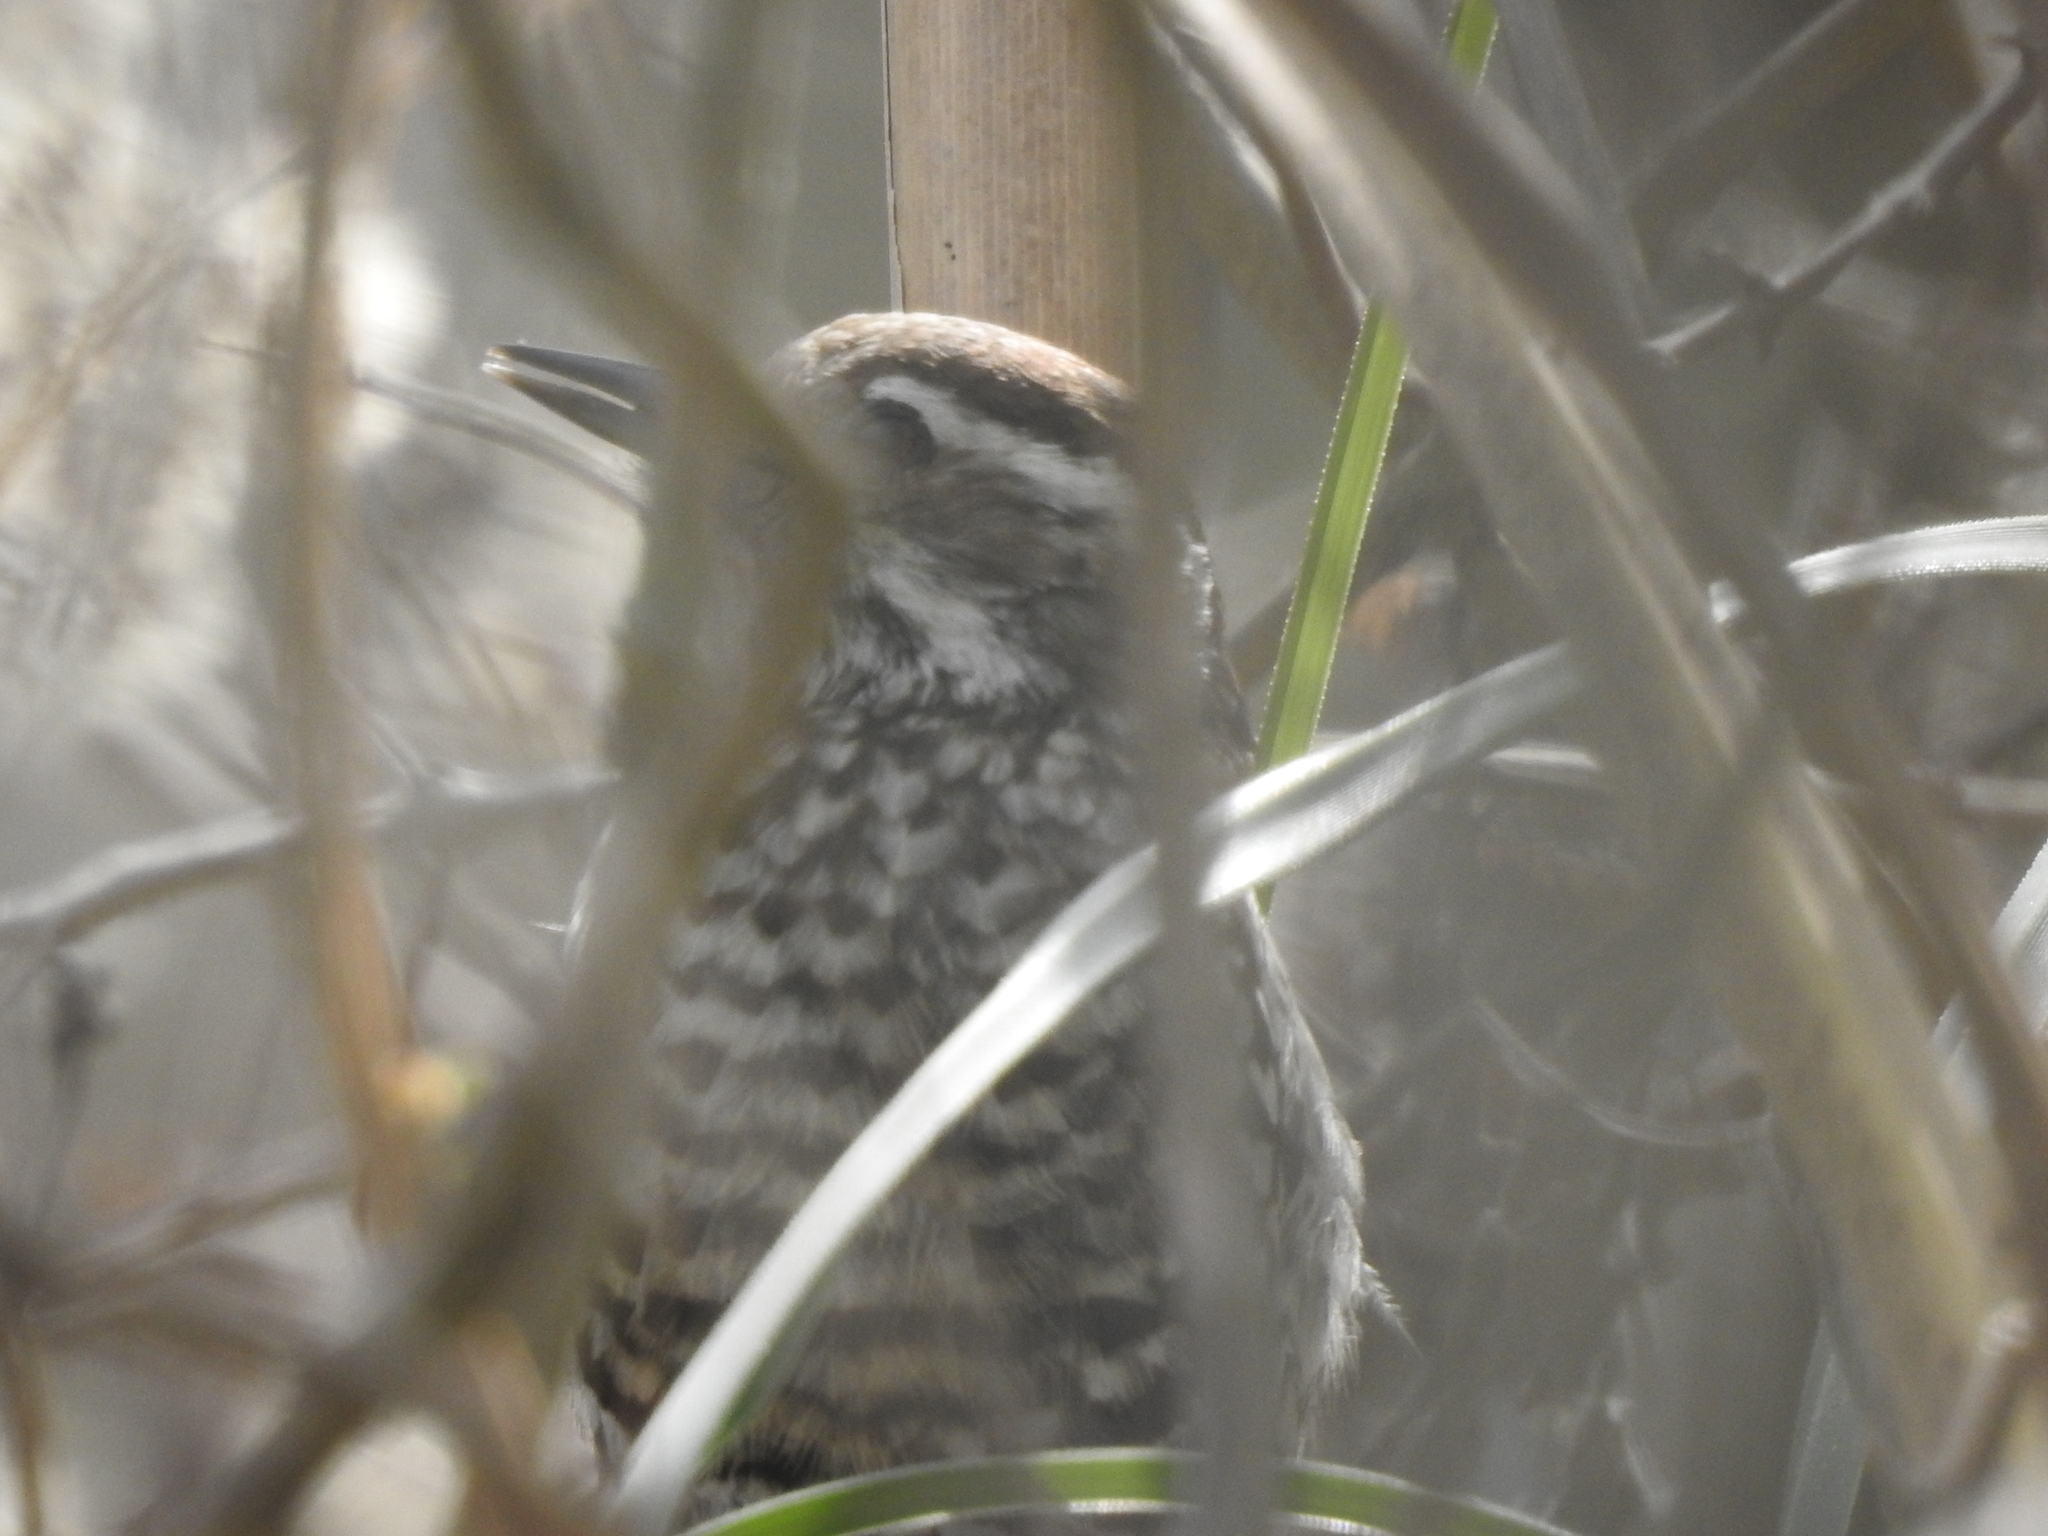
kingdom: Animalia
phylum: Chordata
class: Aves
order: Piciformes
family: Picidae
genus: Veniliornis
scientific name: Veniliornis mixtus
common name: Checkered woodpecker
